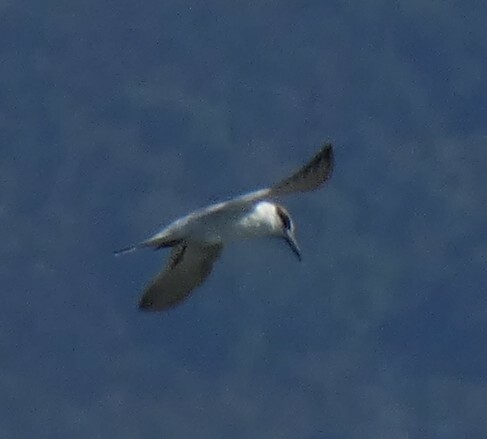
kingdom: Animalia
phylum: Chordata
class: Aves
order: Charadriiformes
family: Laridae
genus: Sterna
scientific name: Sterna forsteri
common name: Forster's tern
